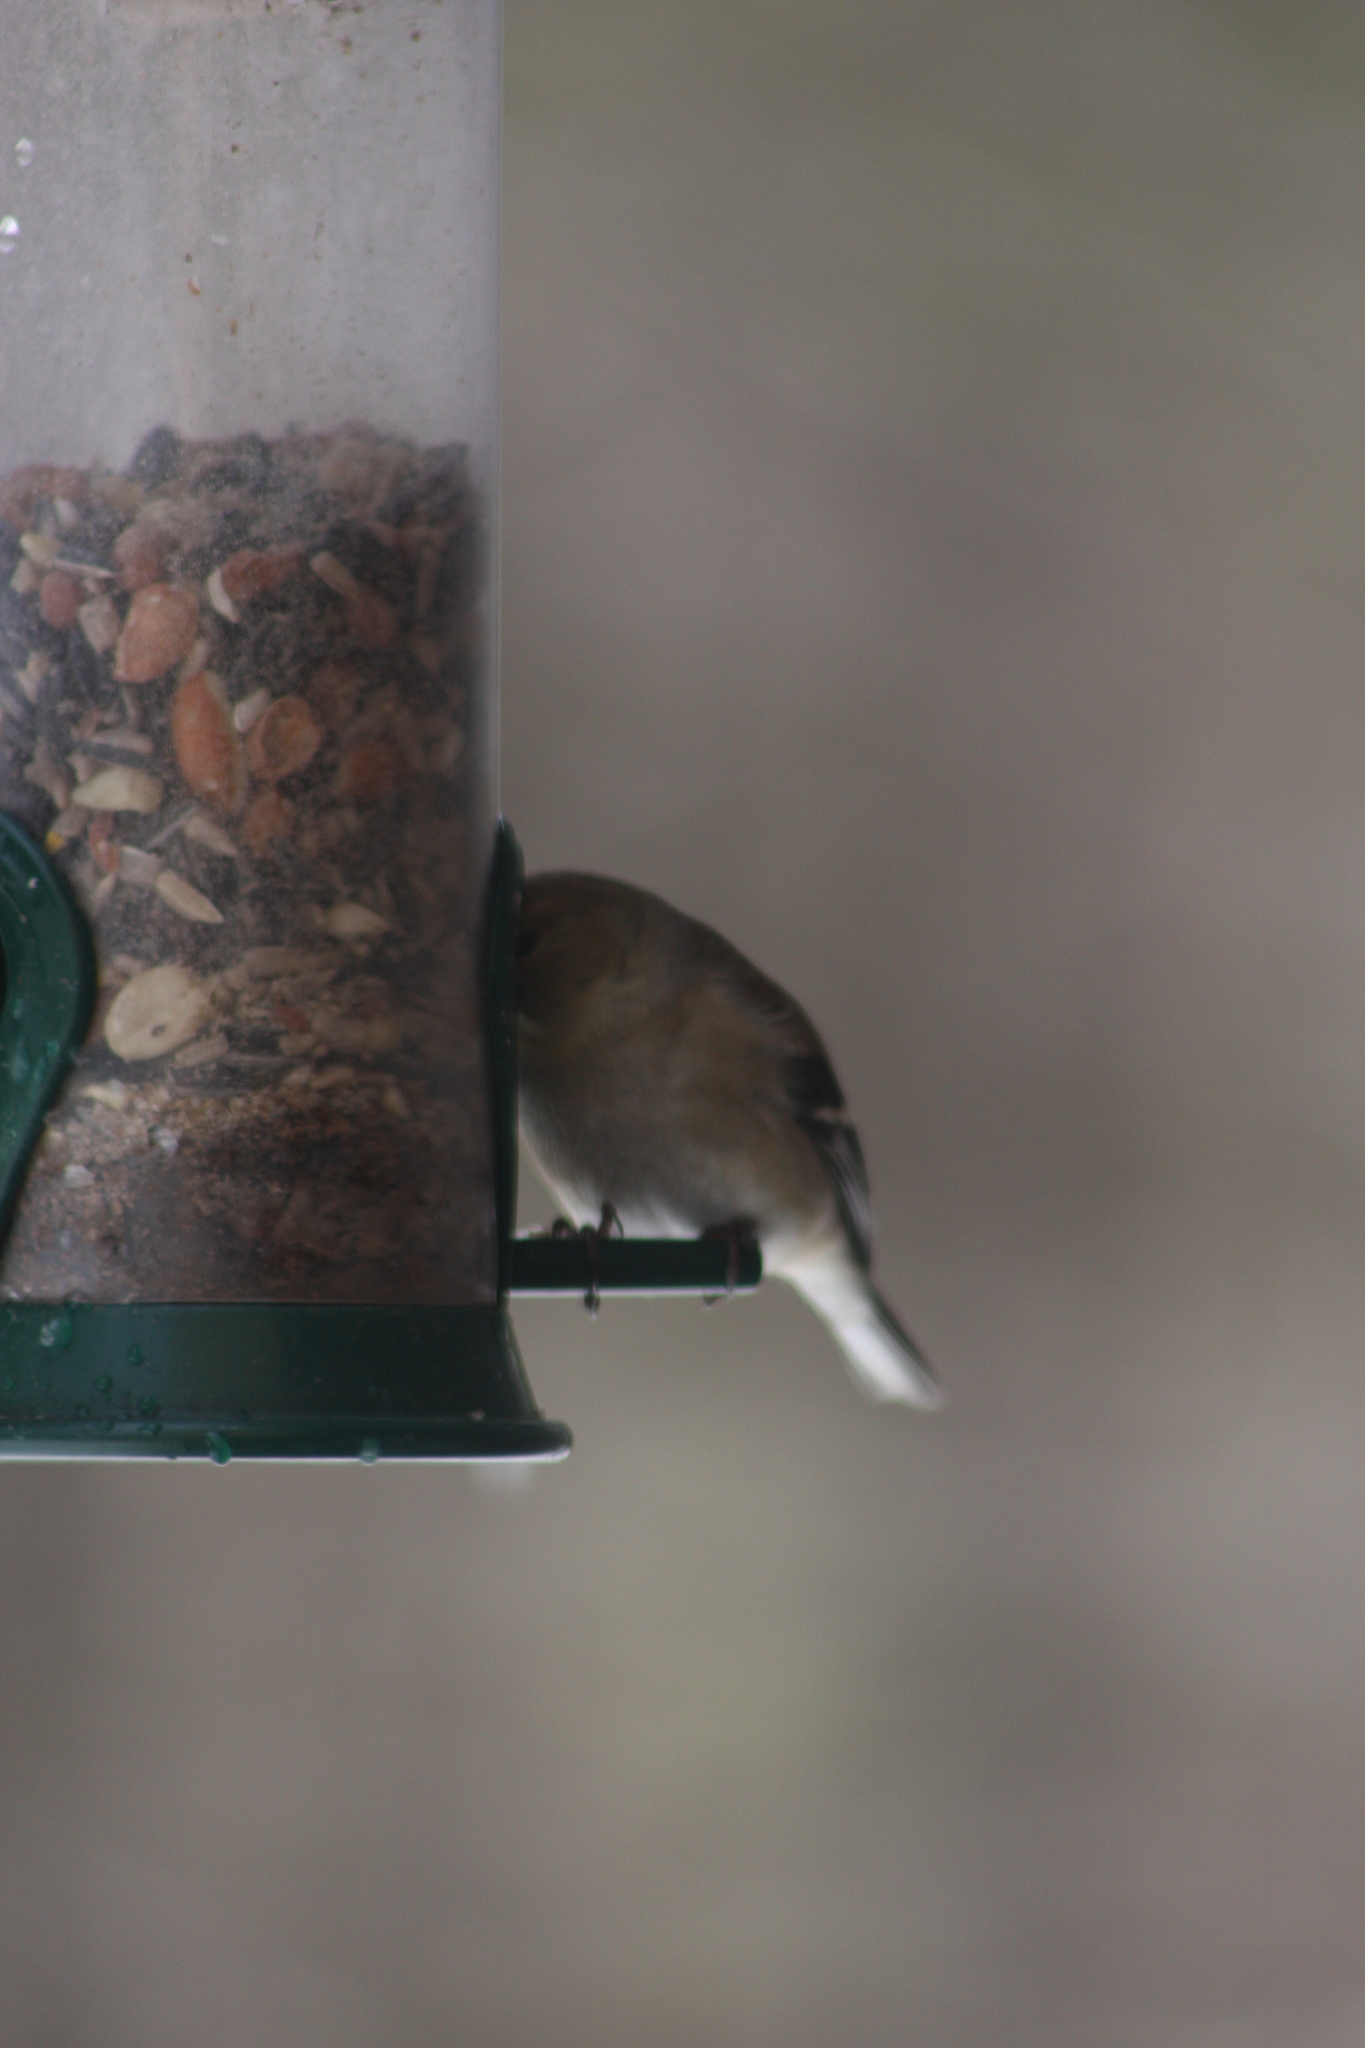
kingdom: Animalia
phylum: Chordata
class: Aves
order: Passeriformes
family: Fringillidae
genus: Spinus
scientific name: Spinus tristis
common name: American goldfinch
